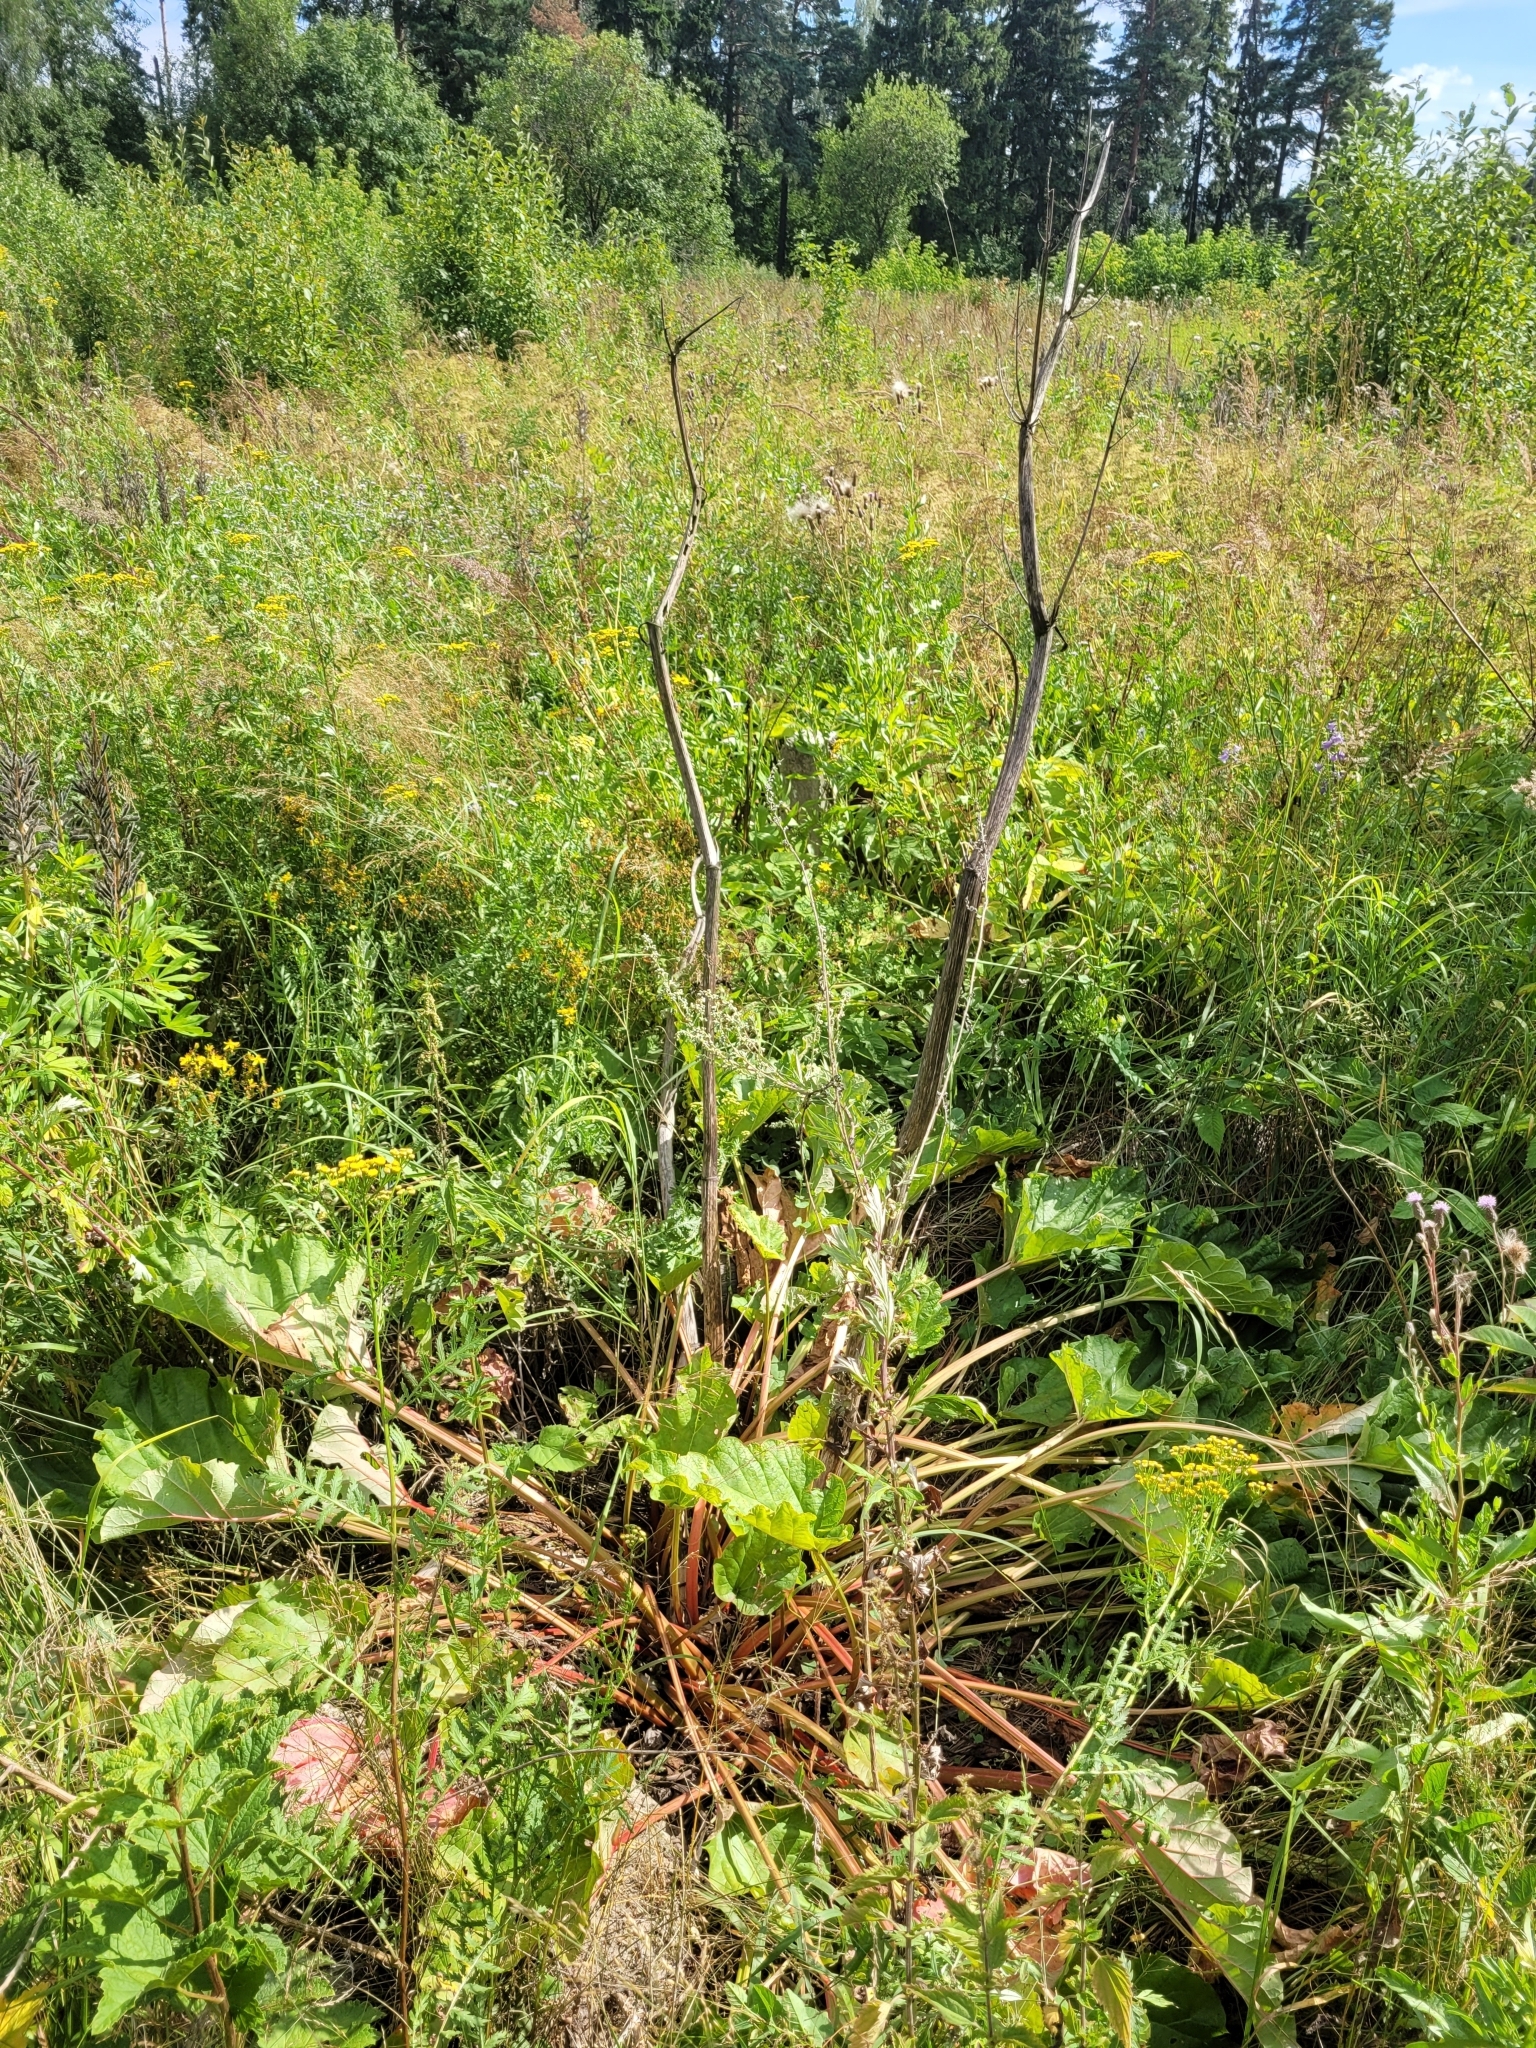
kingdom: Plantae
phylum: Tracheophyta
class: Magnoliopsida
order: Caryophyllales
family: Polygonaceae
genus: Rheum
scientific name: Rheum rhabarbarum
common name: Garden rhubarb
